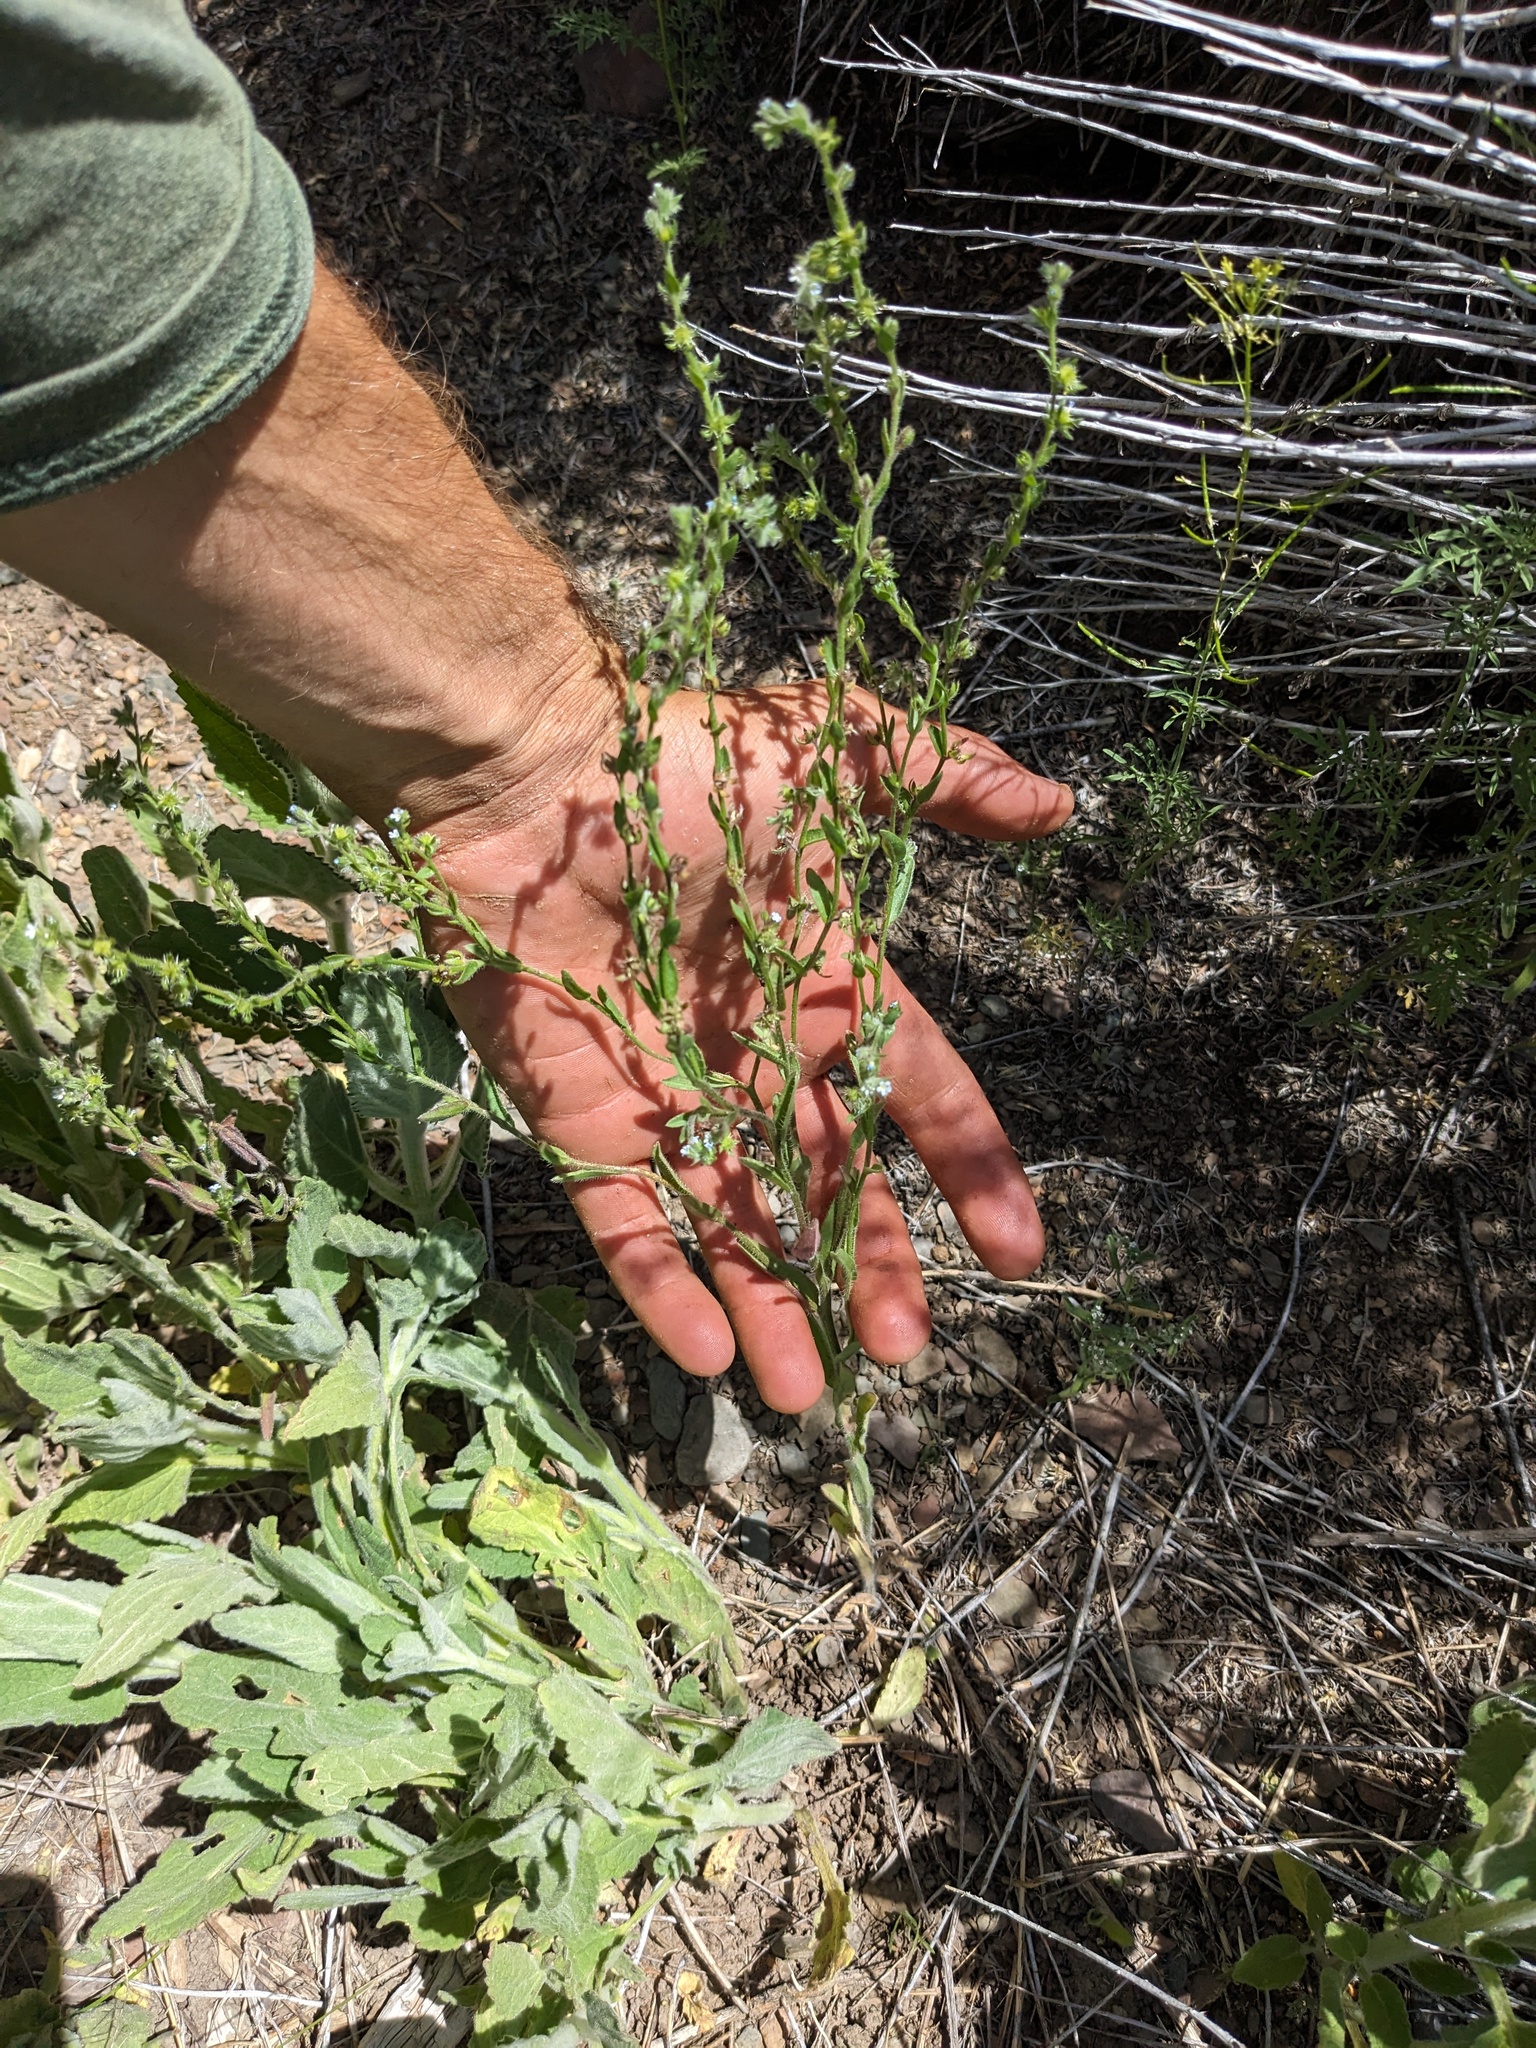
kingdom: Plantae
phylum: Tracheophyta
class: Magnoliopsida
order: Boraginales
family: Boraginaceae
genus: Lappula
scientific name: Lappula occidentalis
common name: Western stickseed
